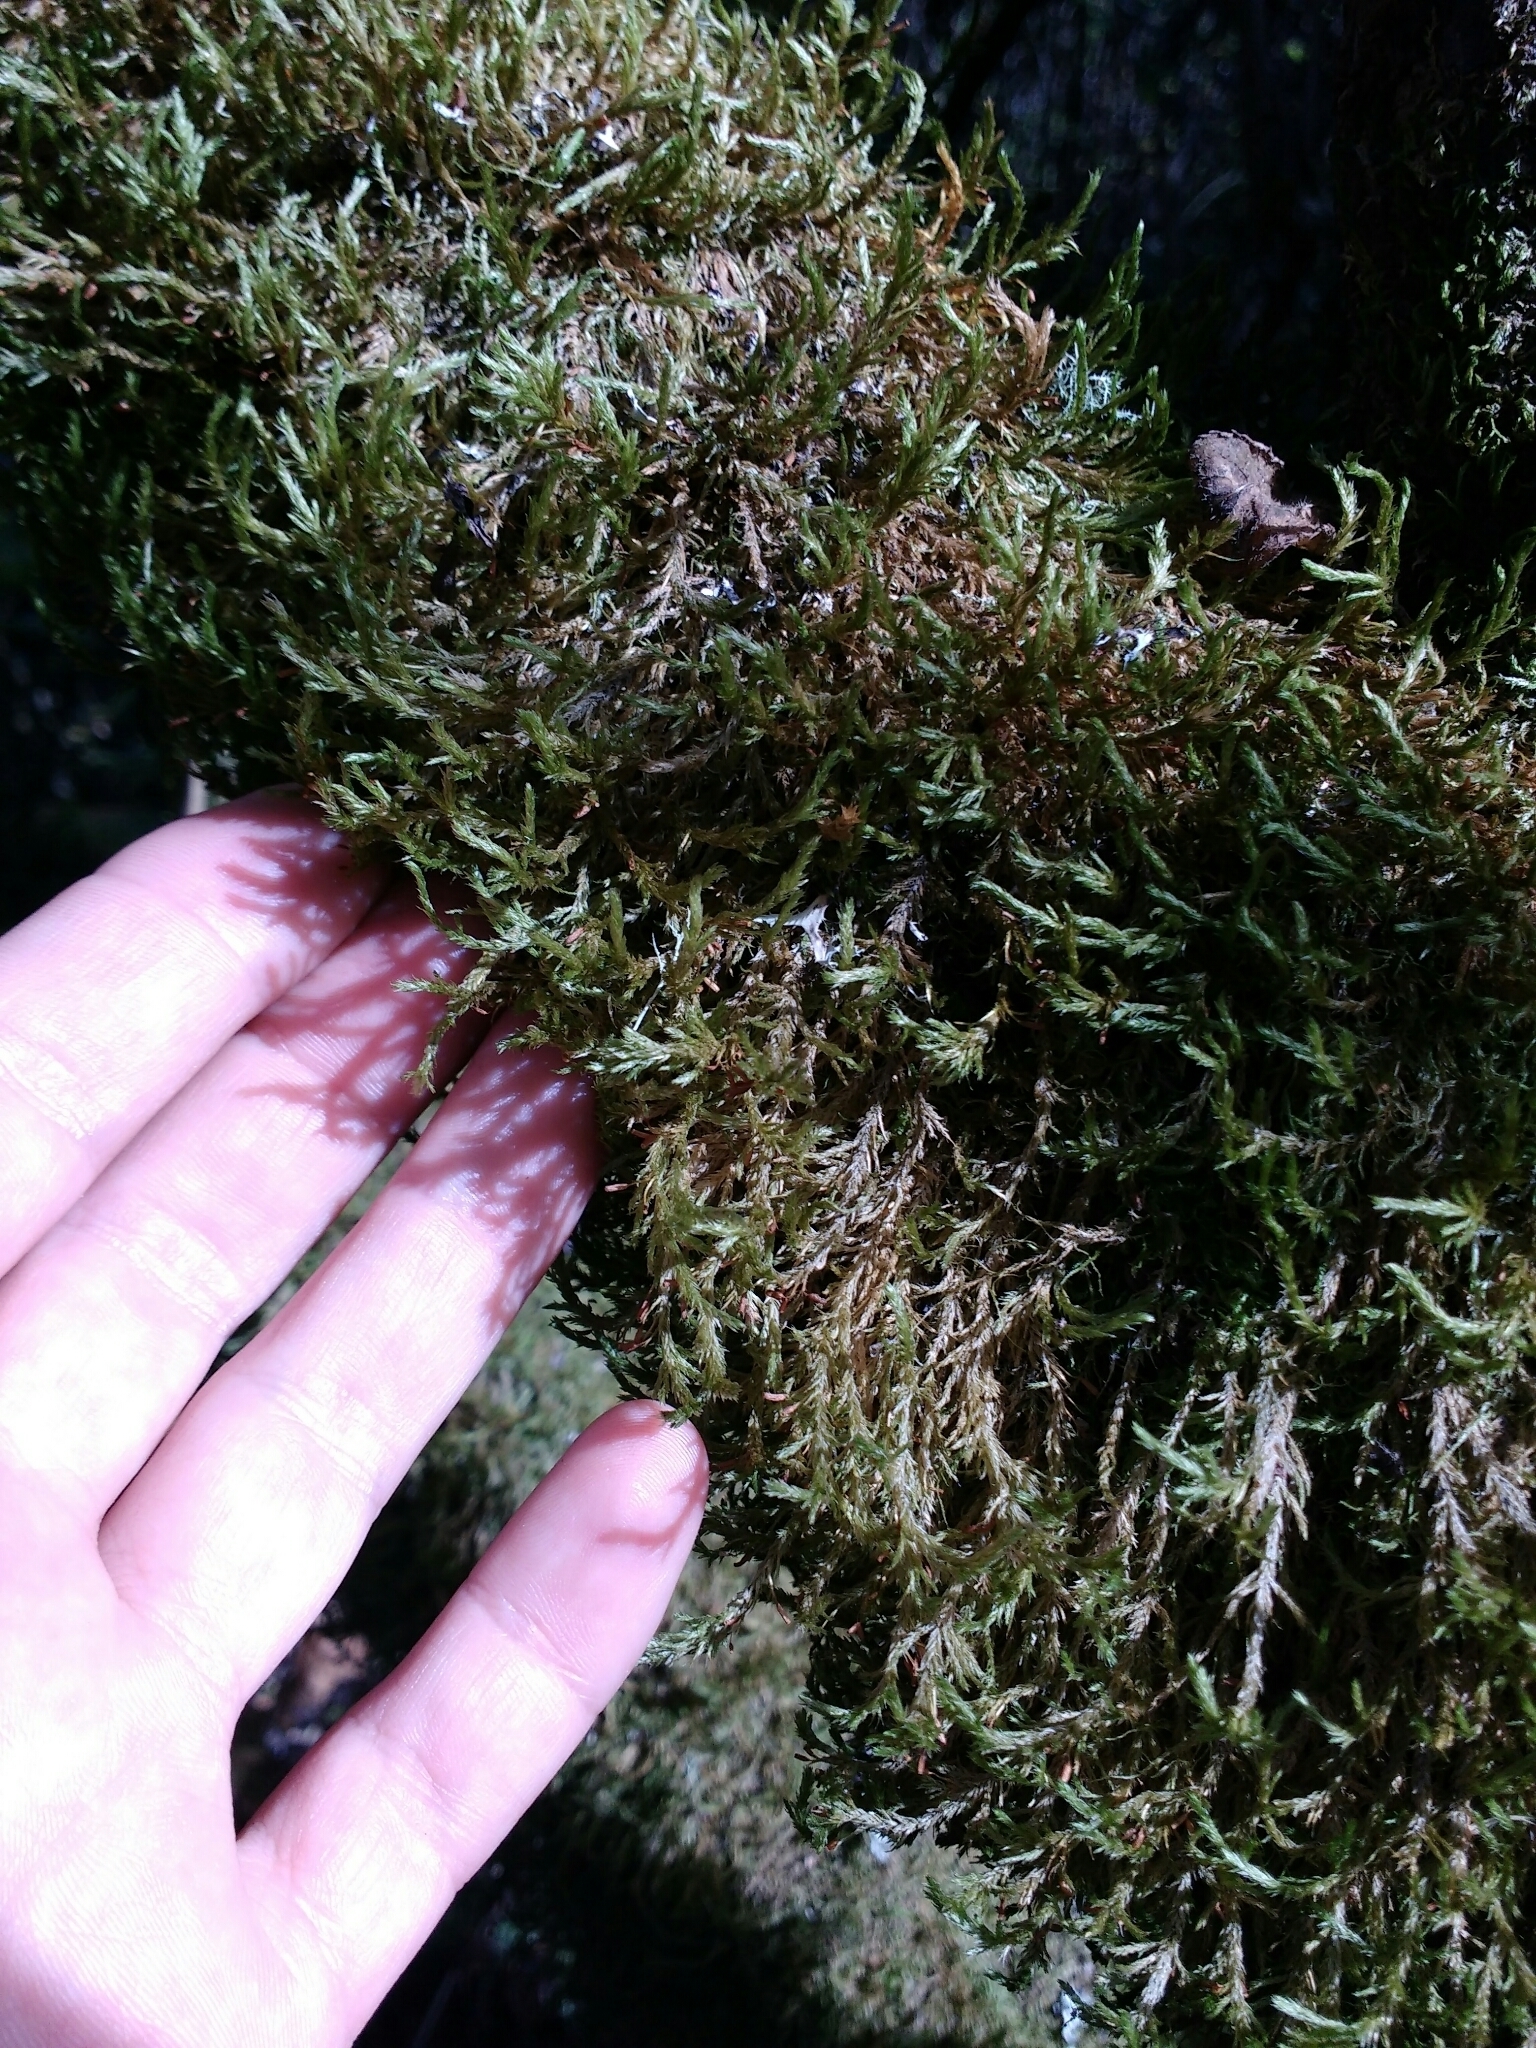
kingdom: Plantae
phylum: Bryophyta
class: Bryopsida
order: Hypnales
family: Neckeraceae
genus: Neckera
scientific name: Neckera californica
